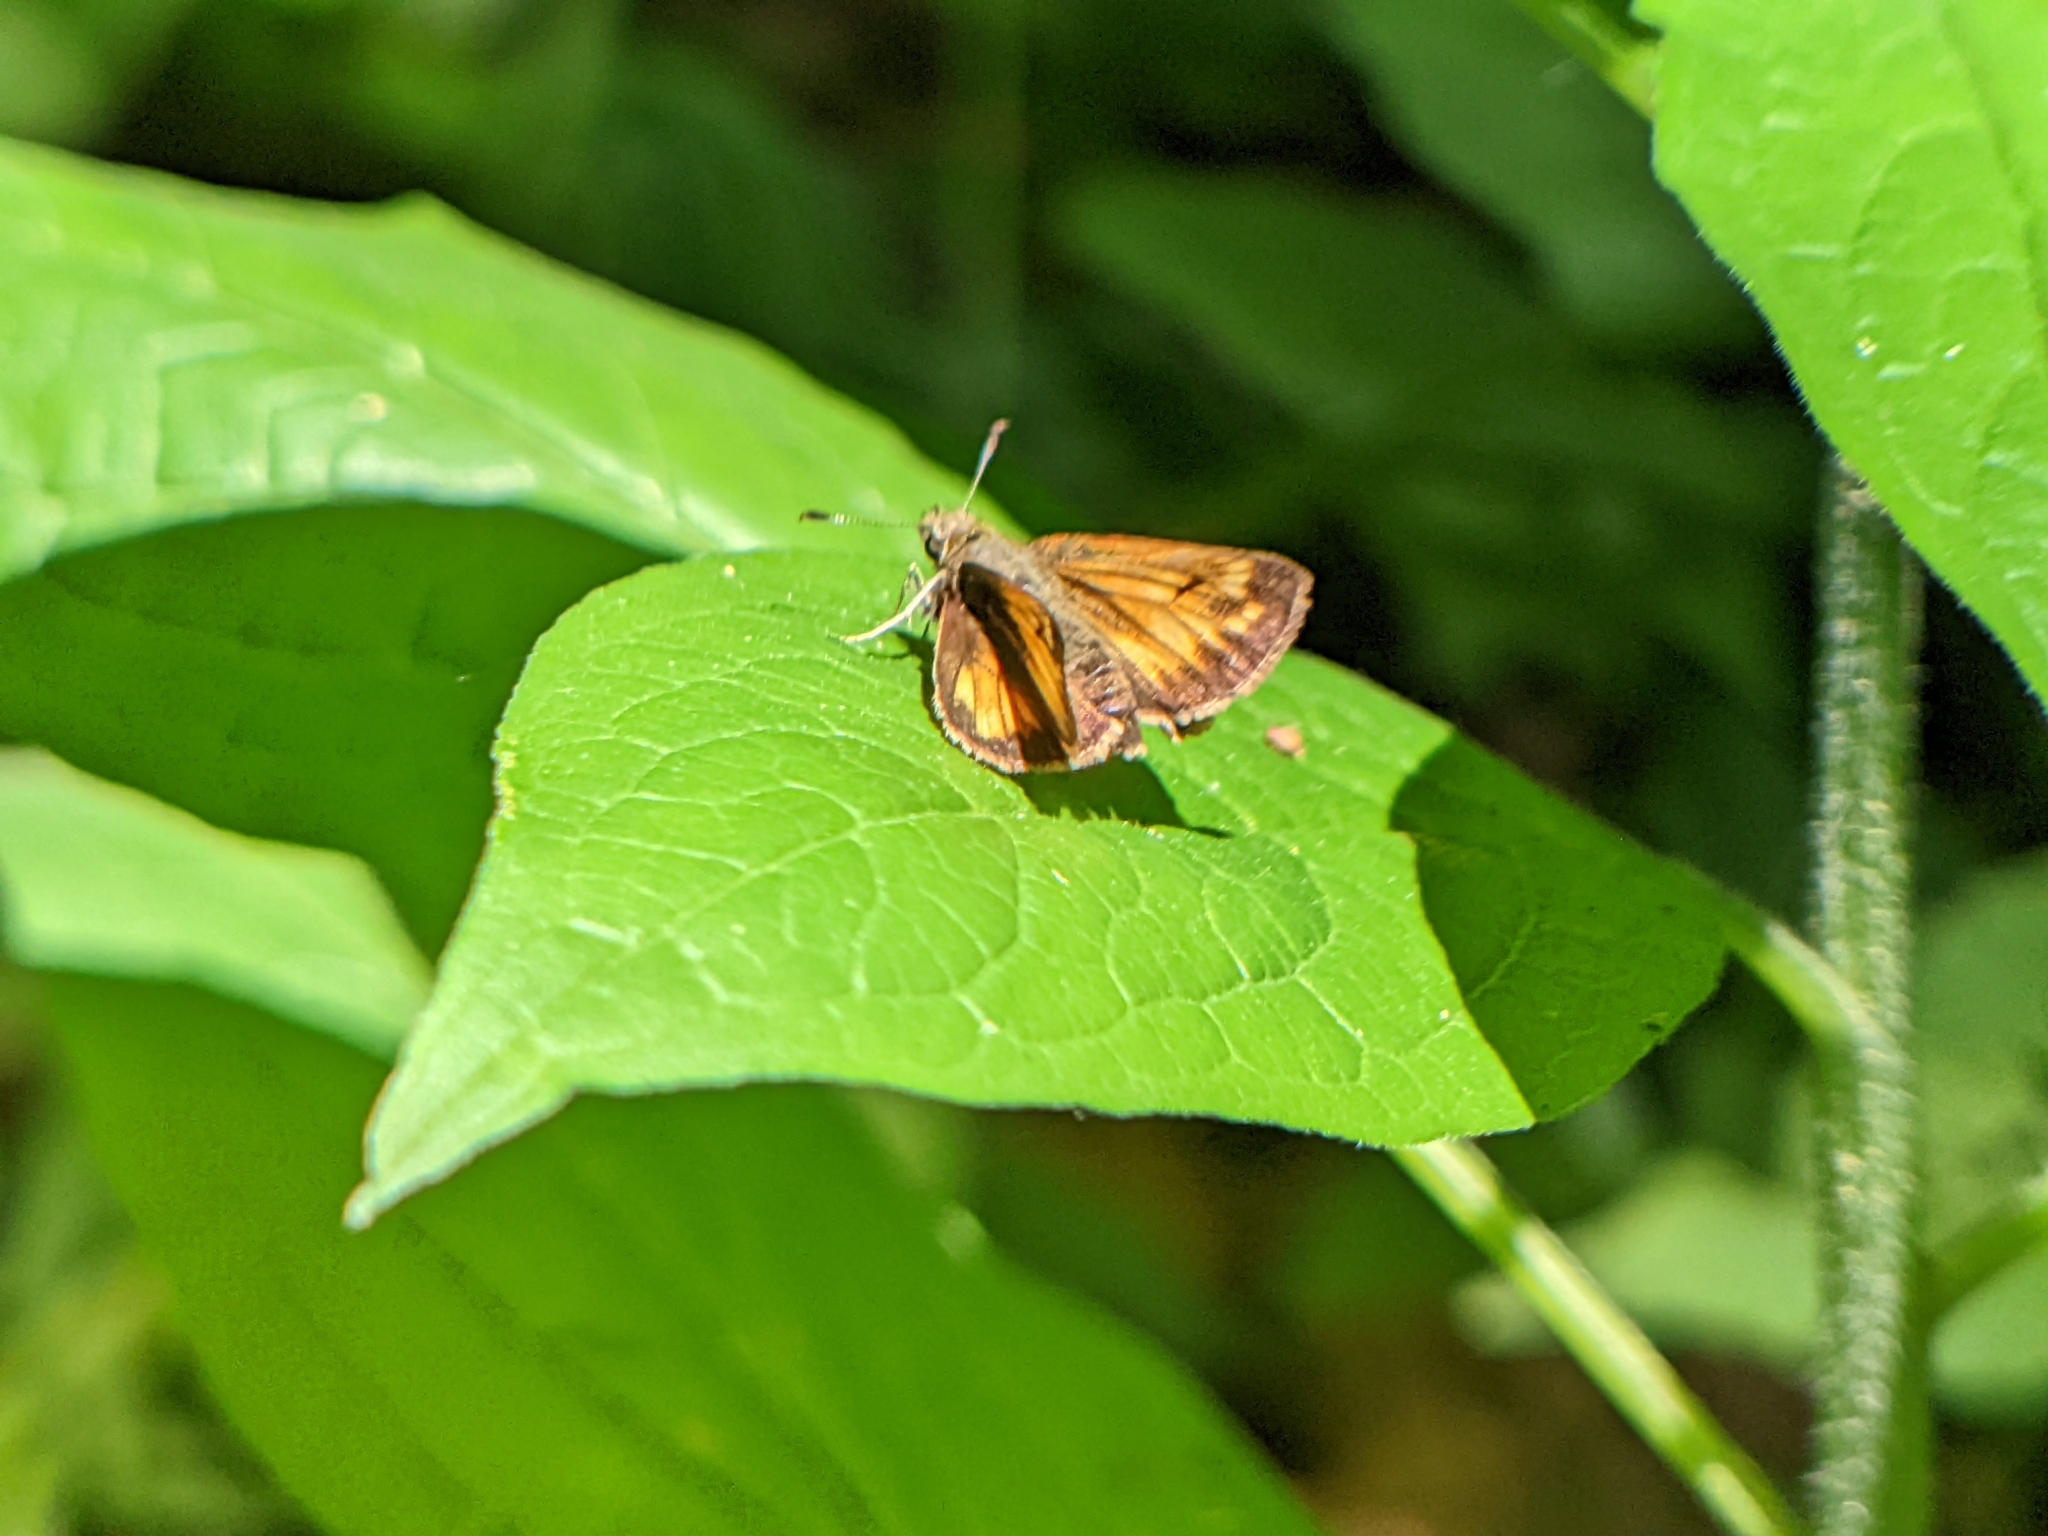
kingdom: Animalia
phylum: Arthropoda
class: Insecta
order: Lepidoptera
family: Hesperiidae
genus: Lon
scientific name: Lon hobomok
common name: Hobomok skipper
